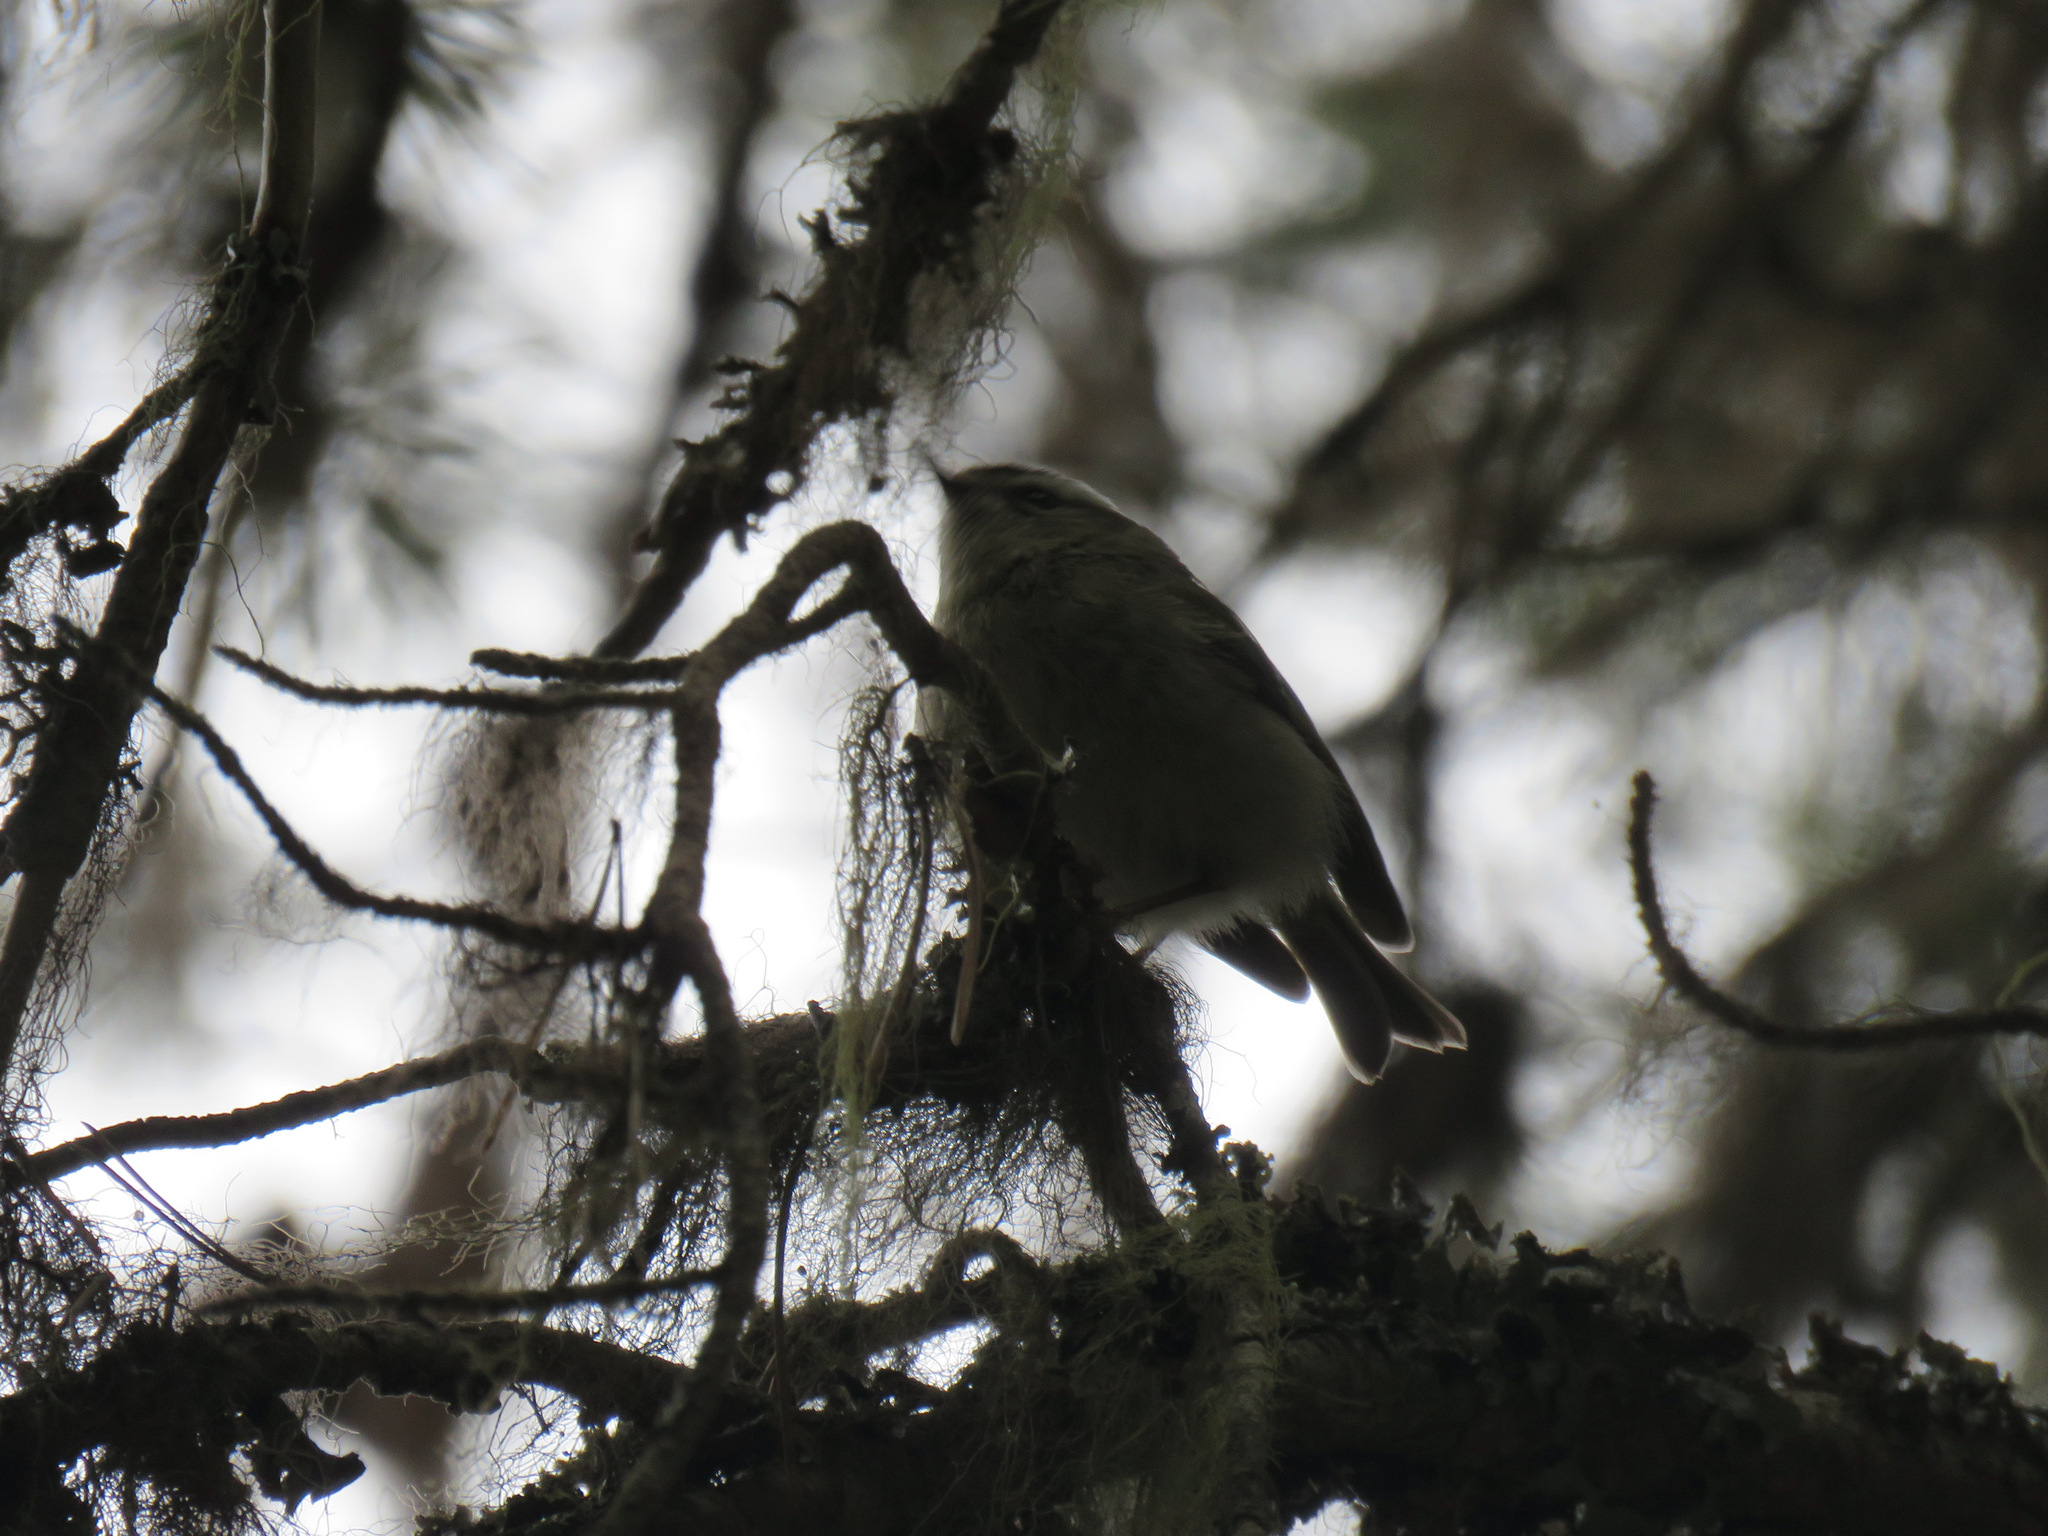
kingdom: Animalia
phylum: Chordata
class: Aves
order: Passeriformes
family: Regulidae
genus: Regulus
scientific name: Regulus satrapa
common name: Golden-crowned kinglet
